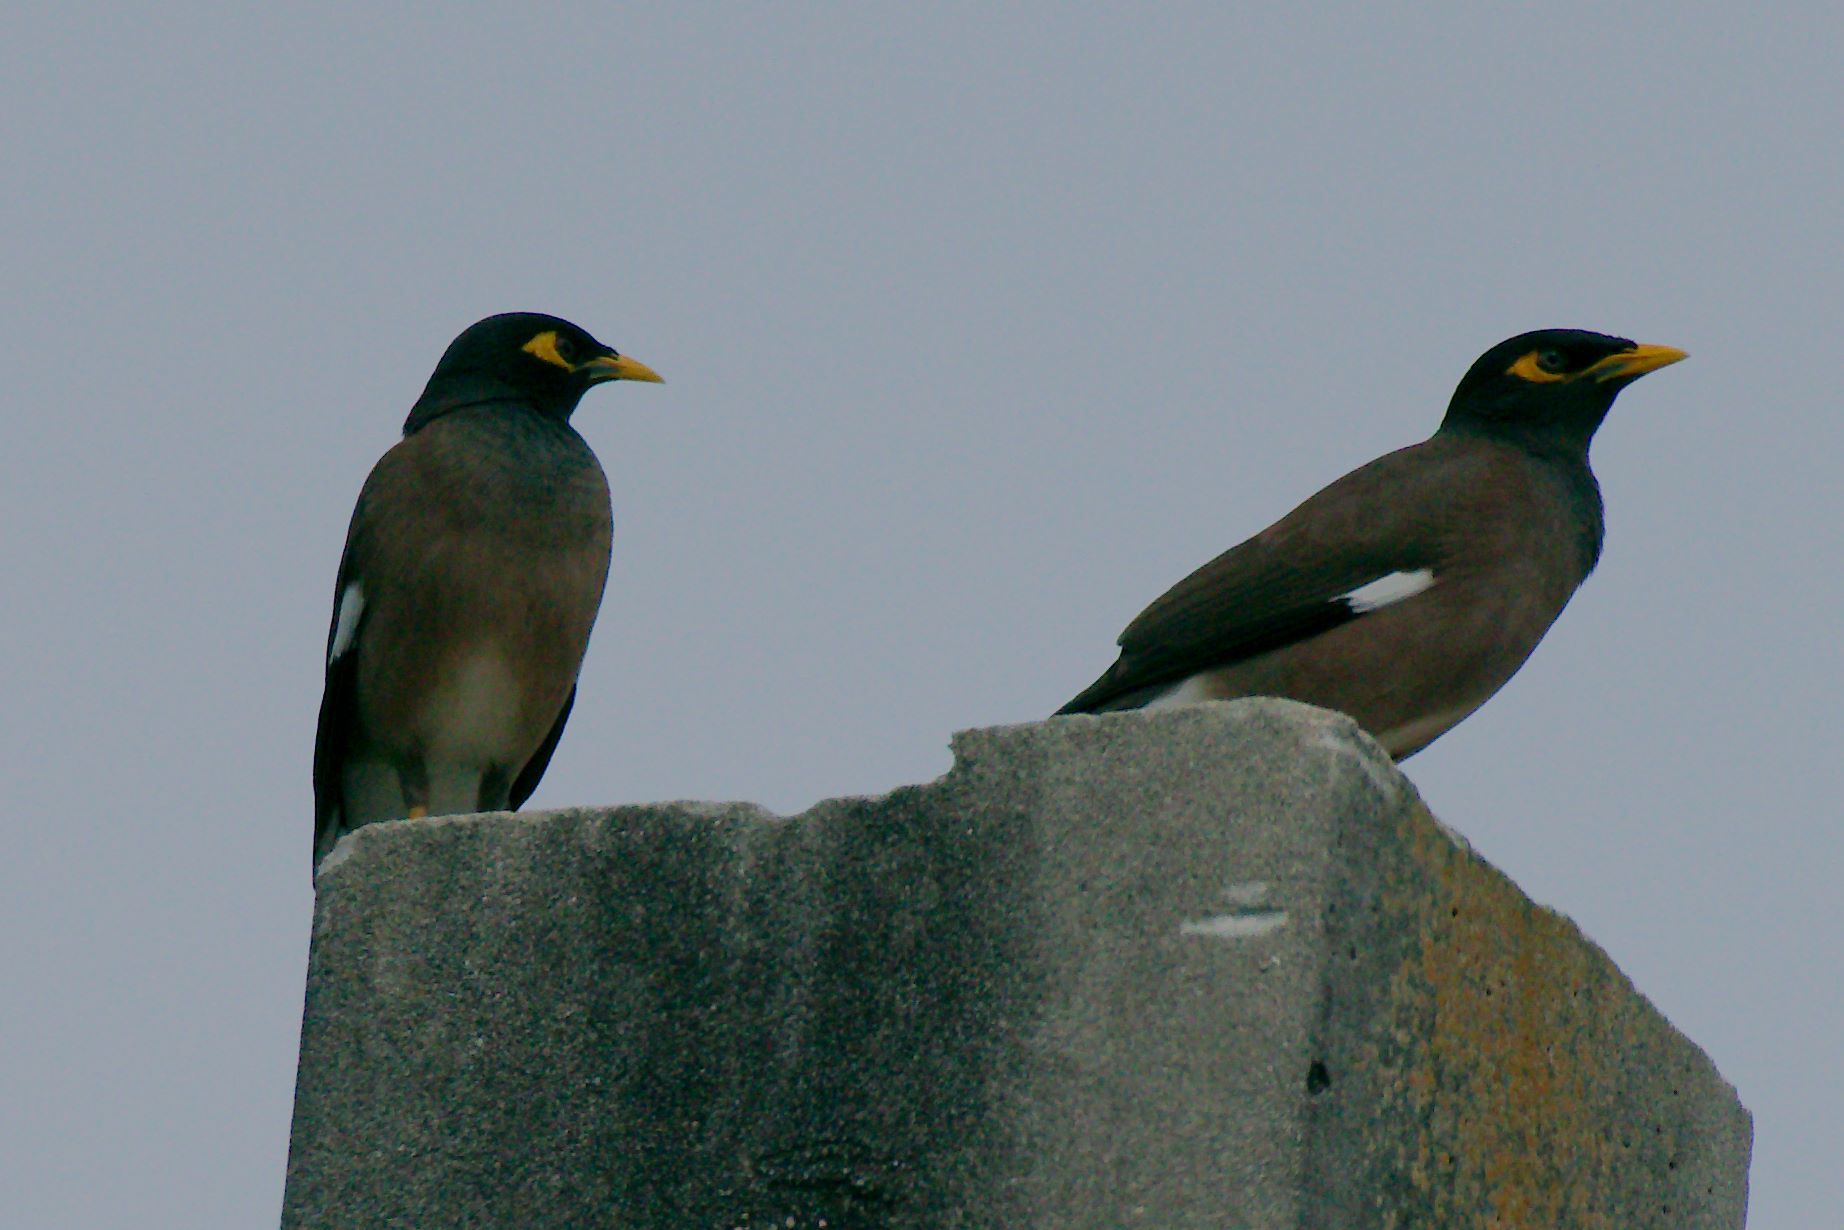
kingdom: Animalia
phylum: Chordata
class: Aves
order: Passeriformes
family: Sturnidae
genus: Acridotheres
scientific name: Acridotheres tristis
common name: Common myna
